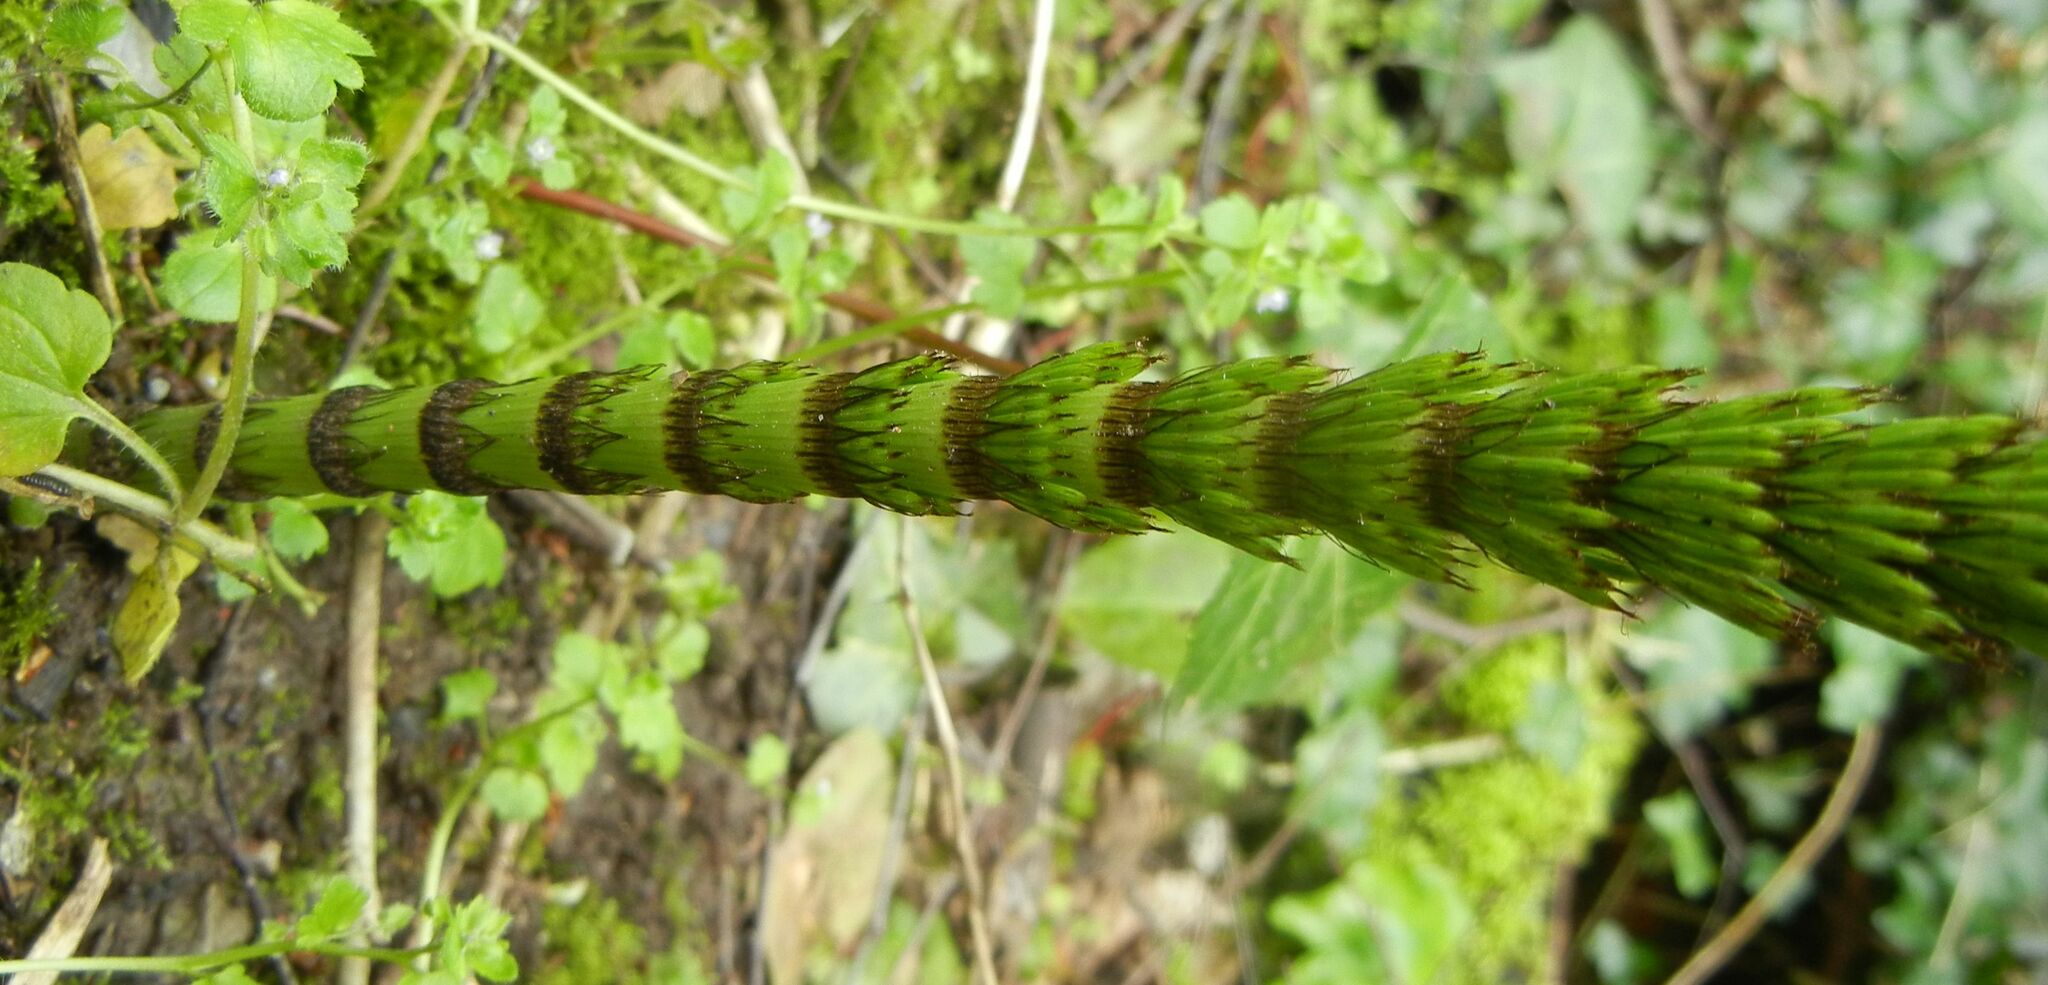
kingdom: Plantae
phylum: Tracheophyta
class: Polypodiopsida
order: Equisetales
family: Equisetaceae
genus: Equisetum
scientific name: Equisetum telmateia
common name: Great horsetail
